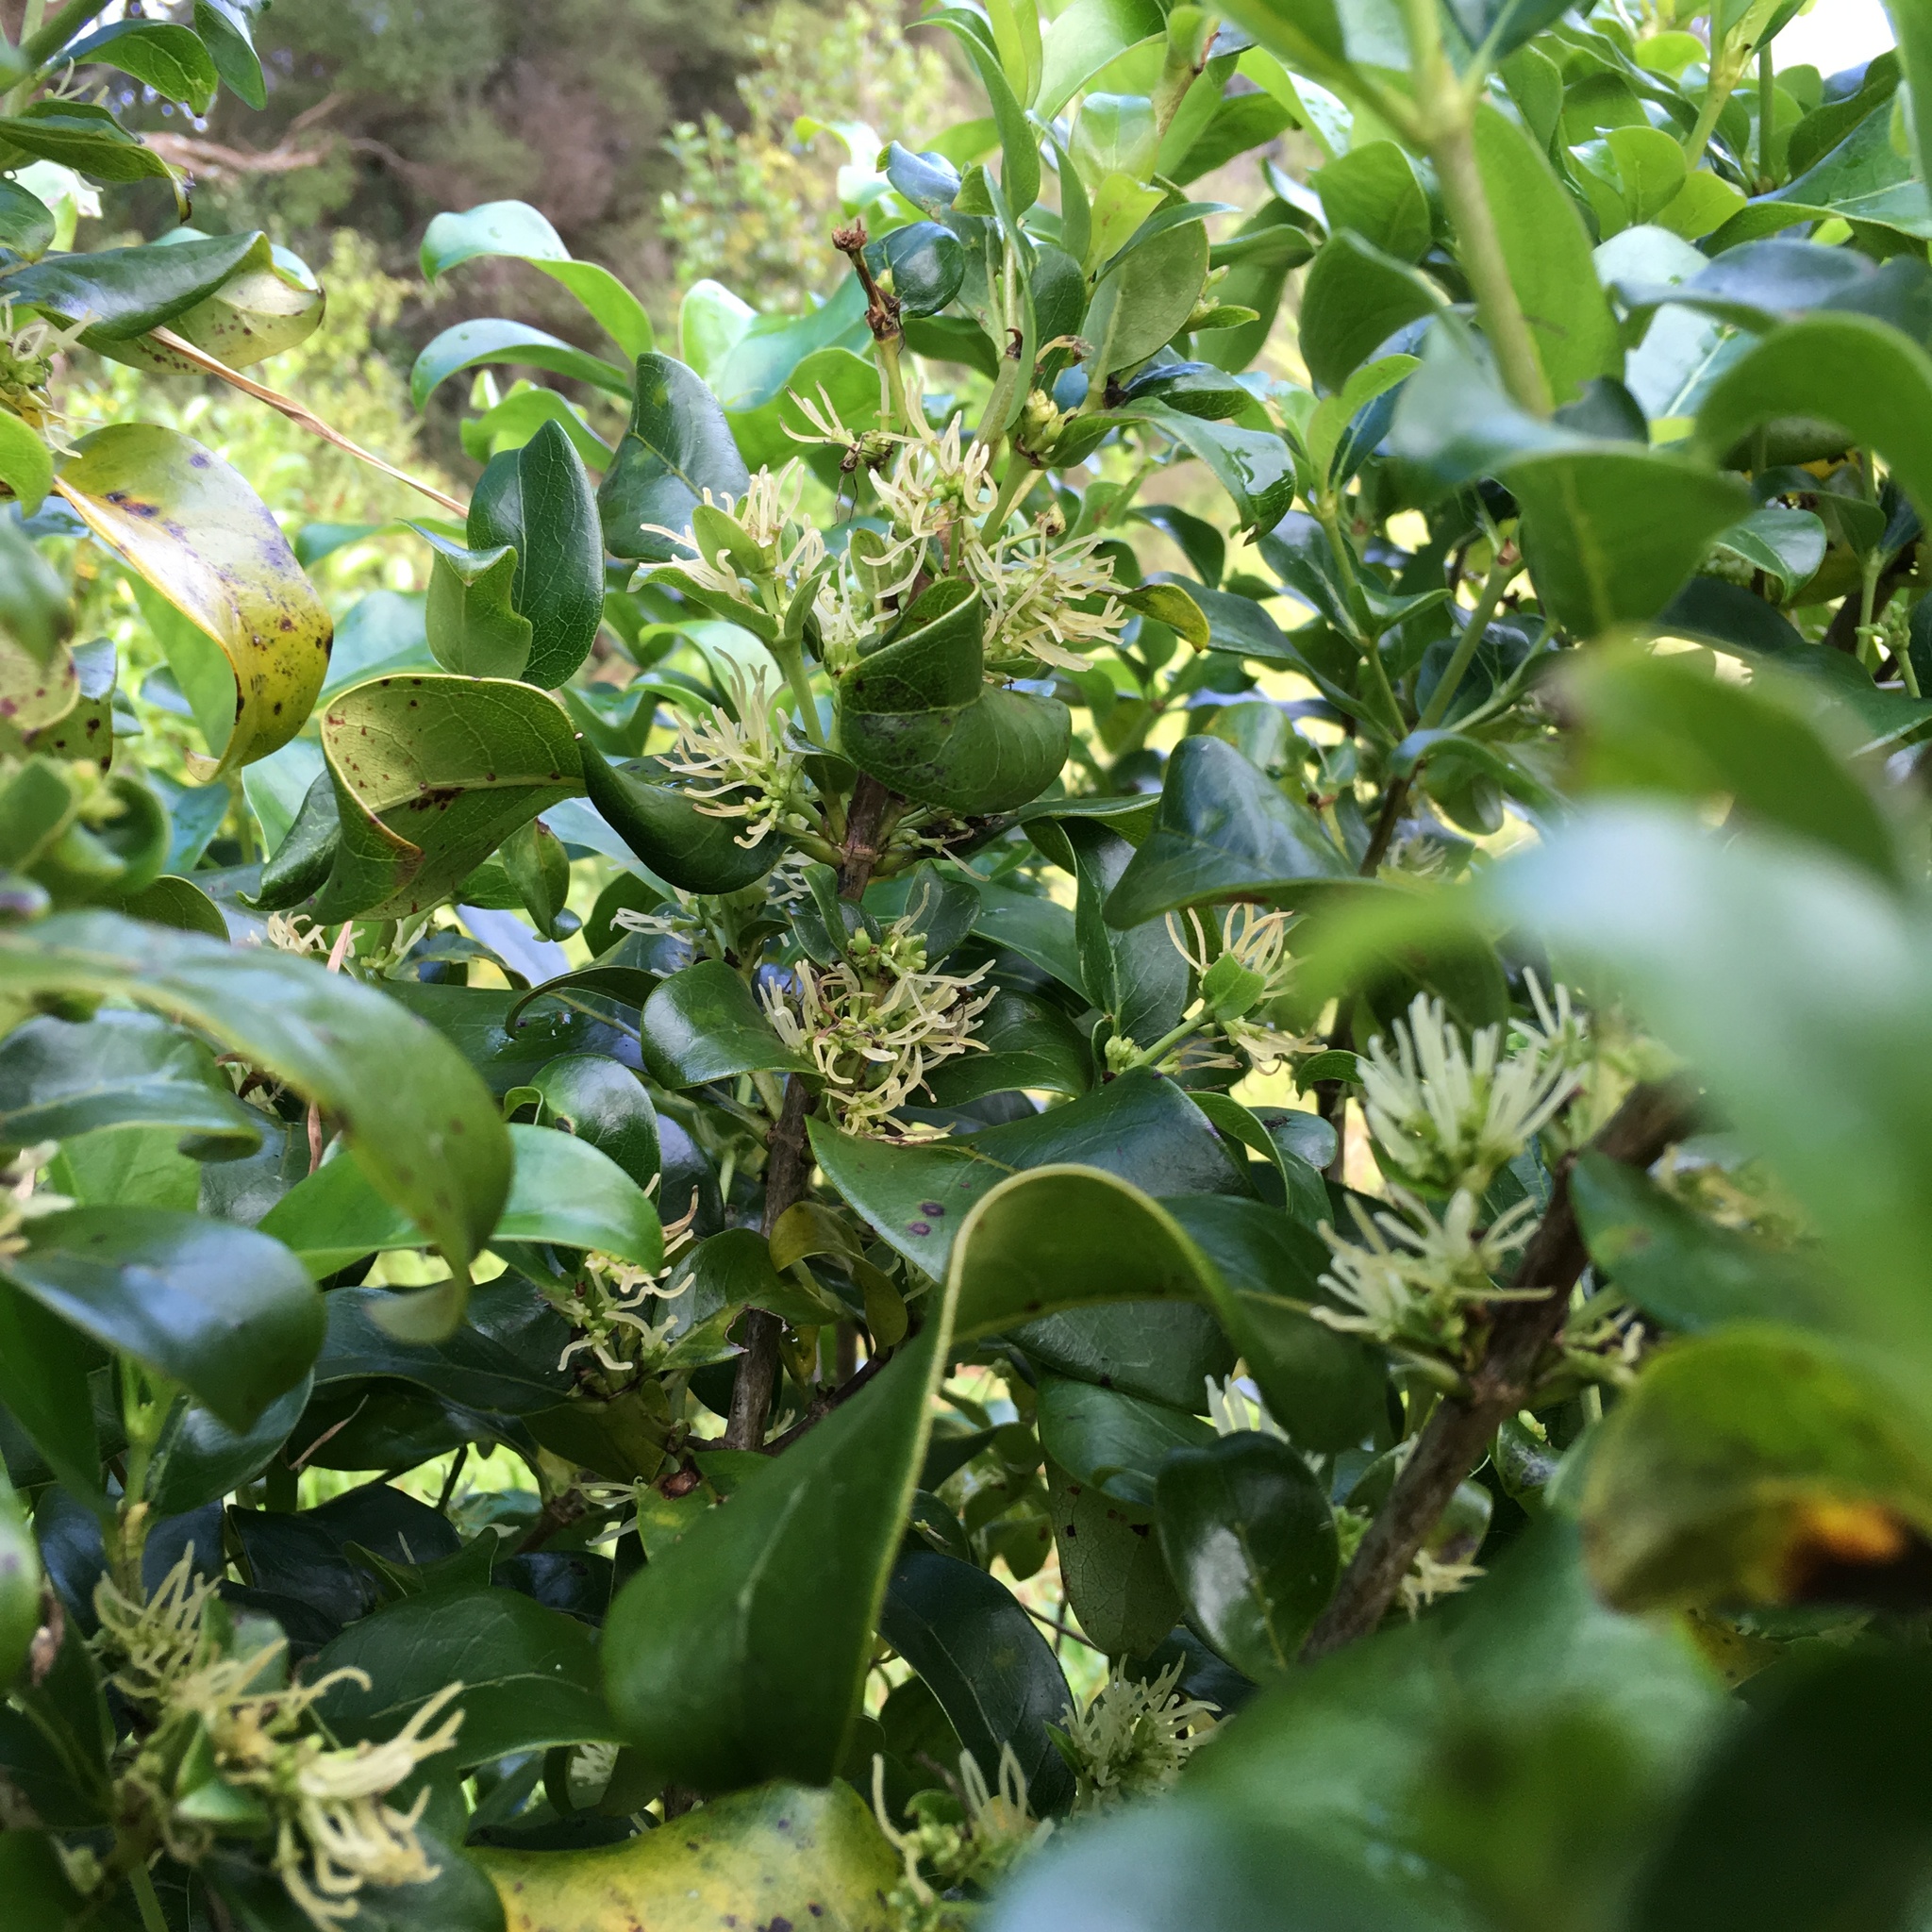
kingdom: Plantae
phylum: Tracheophyta
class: Magnoliopsida
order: Gentianales
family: Rubiaceae
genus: Coprosma
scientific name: Coprosma robusta
